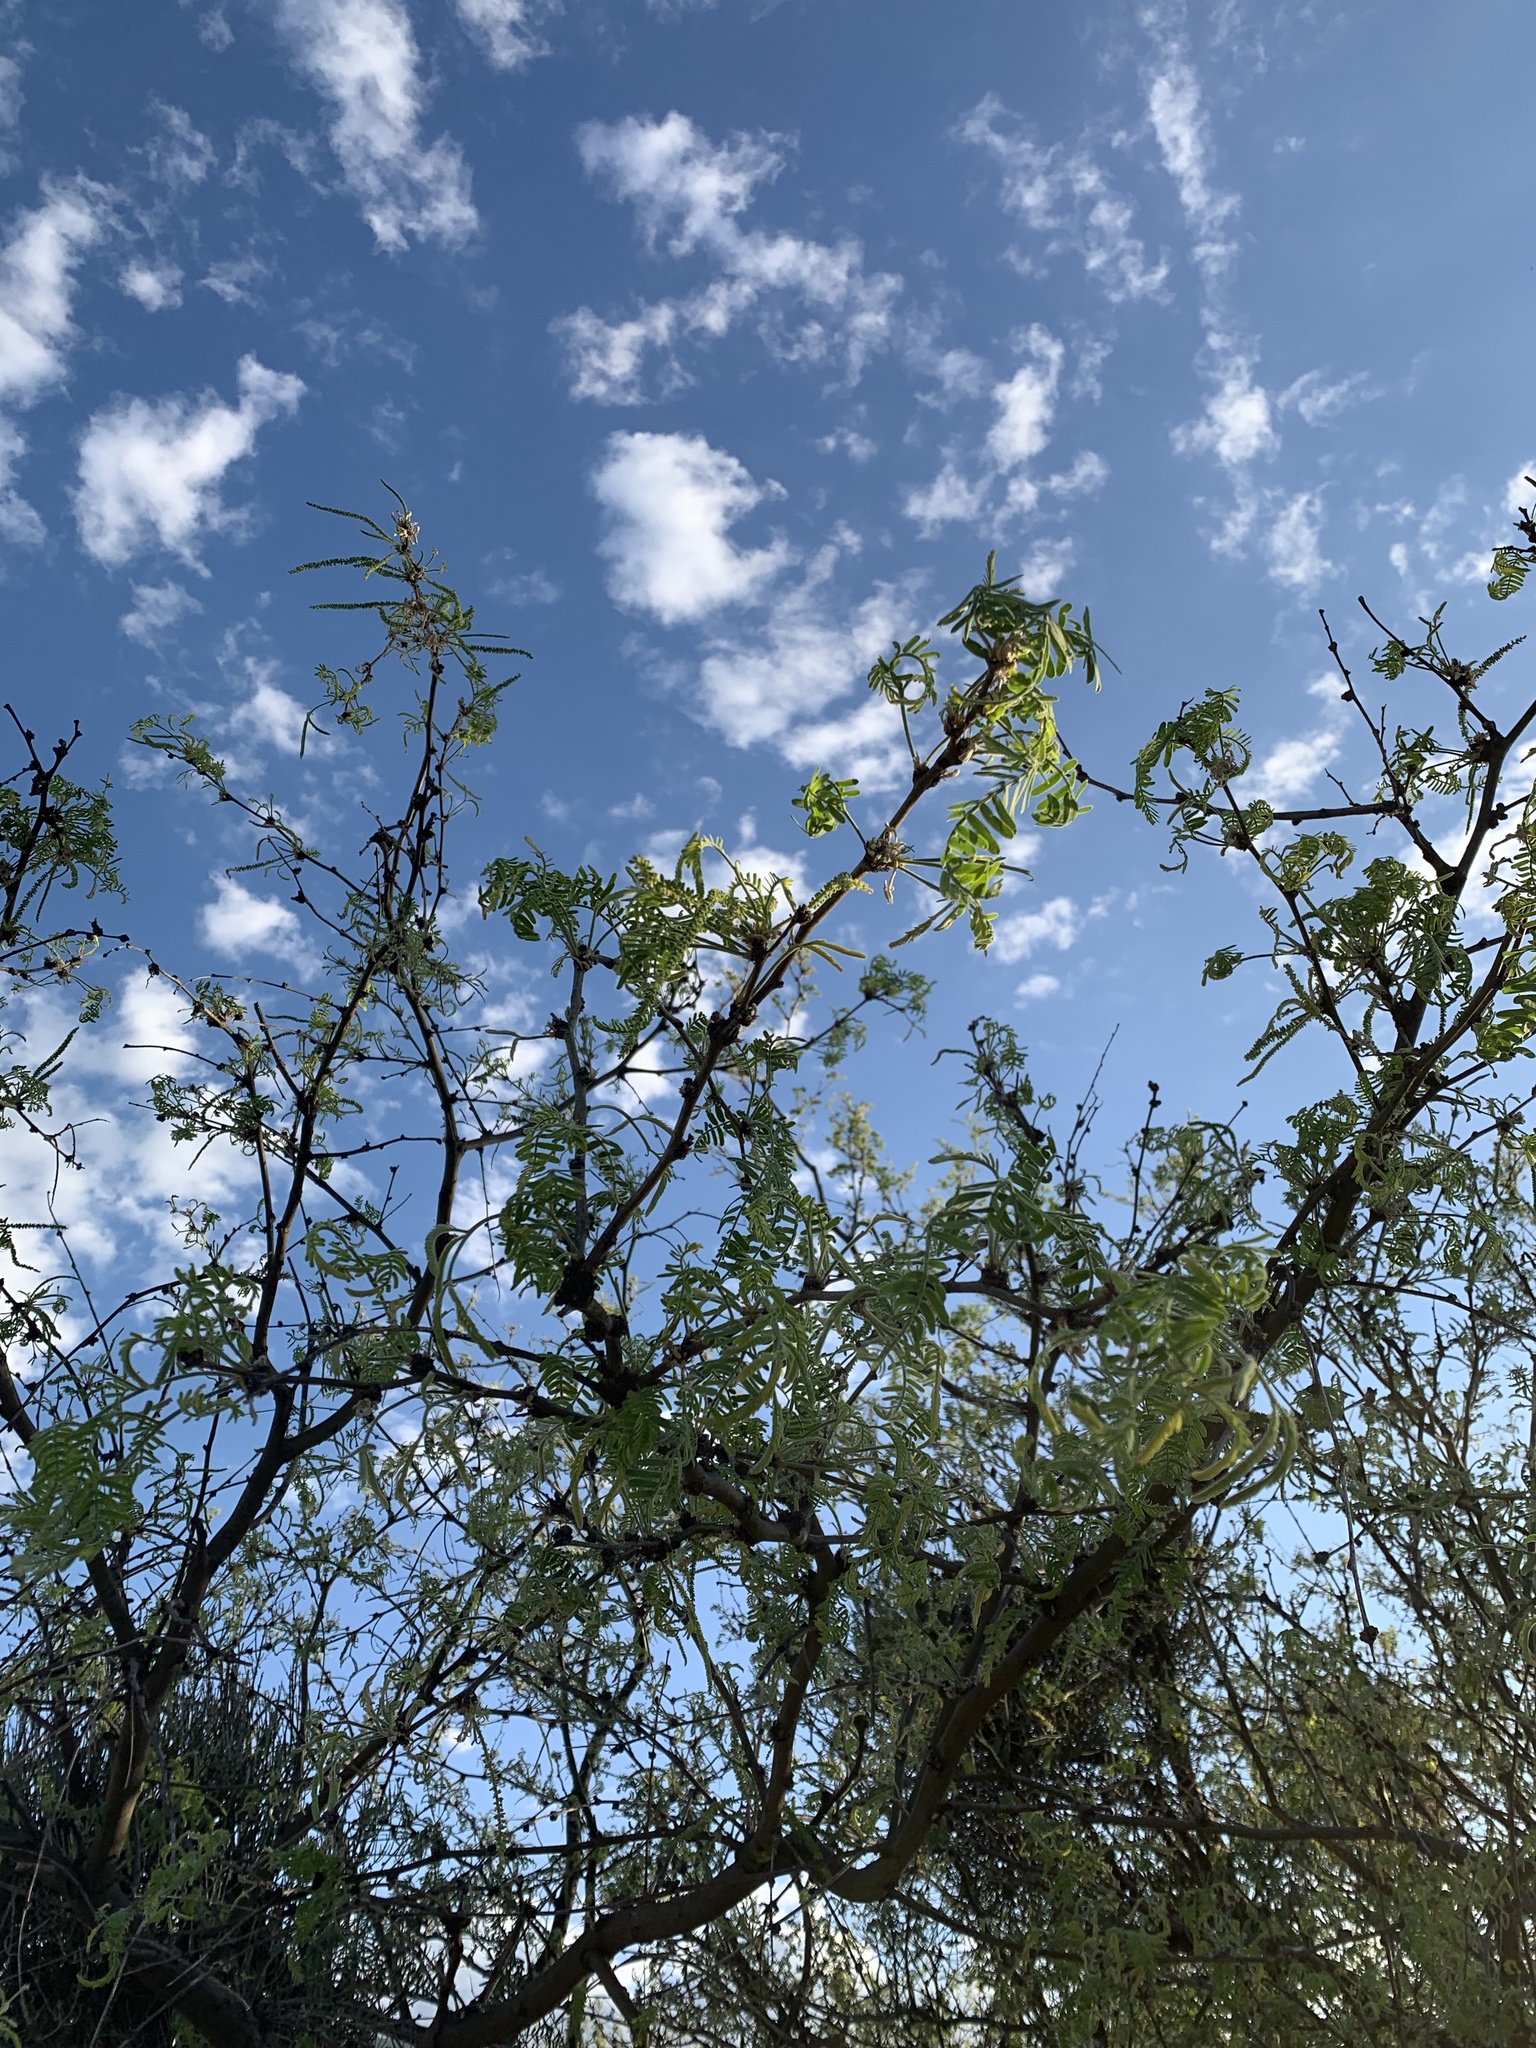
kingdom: Plantae
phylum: Tracheophyta
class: Magnoliopsida
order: Fabales
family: Fabaceae
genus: Prosopis
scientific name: Prosopis glandulosa
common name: Honey mesquite
